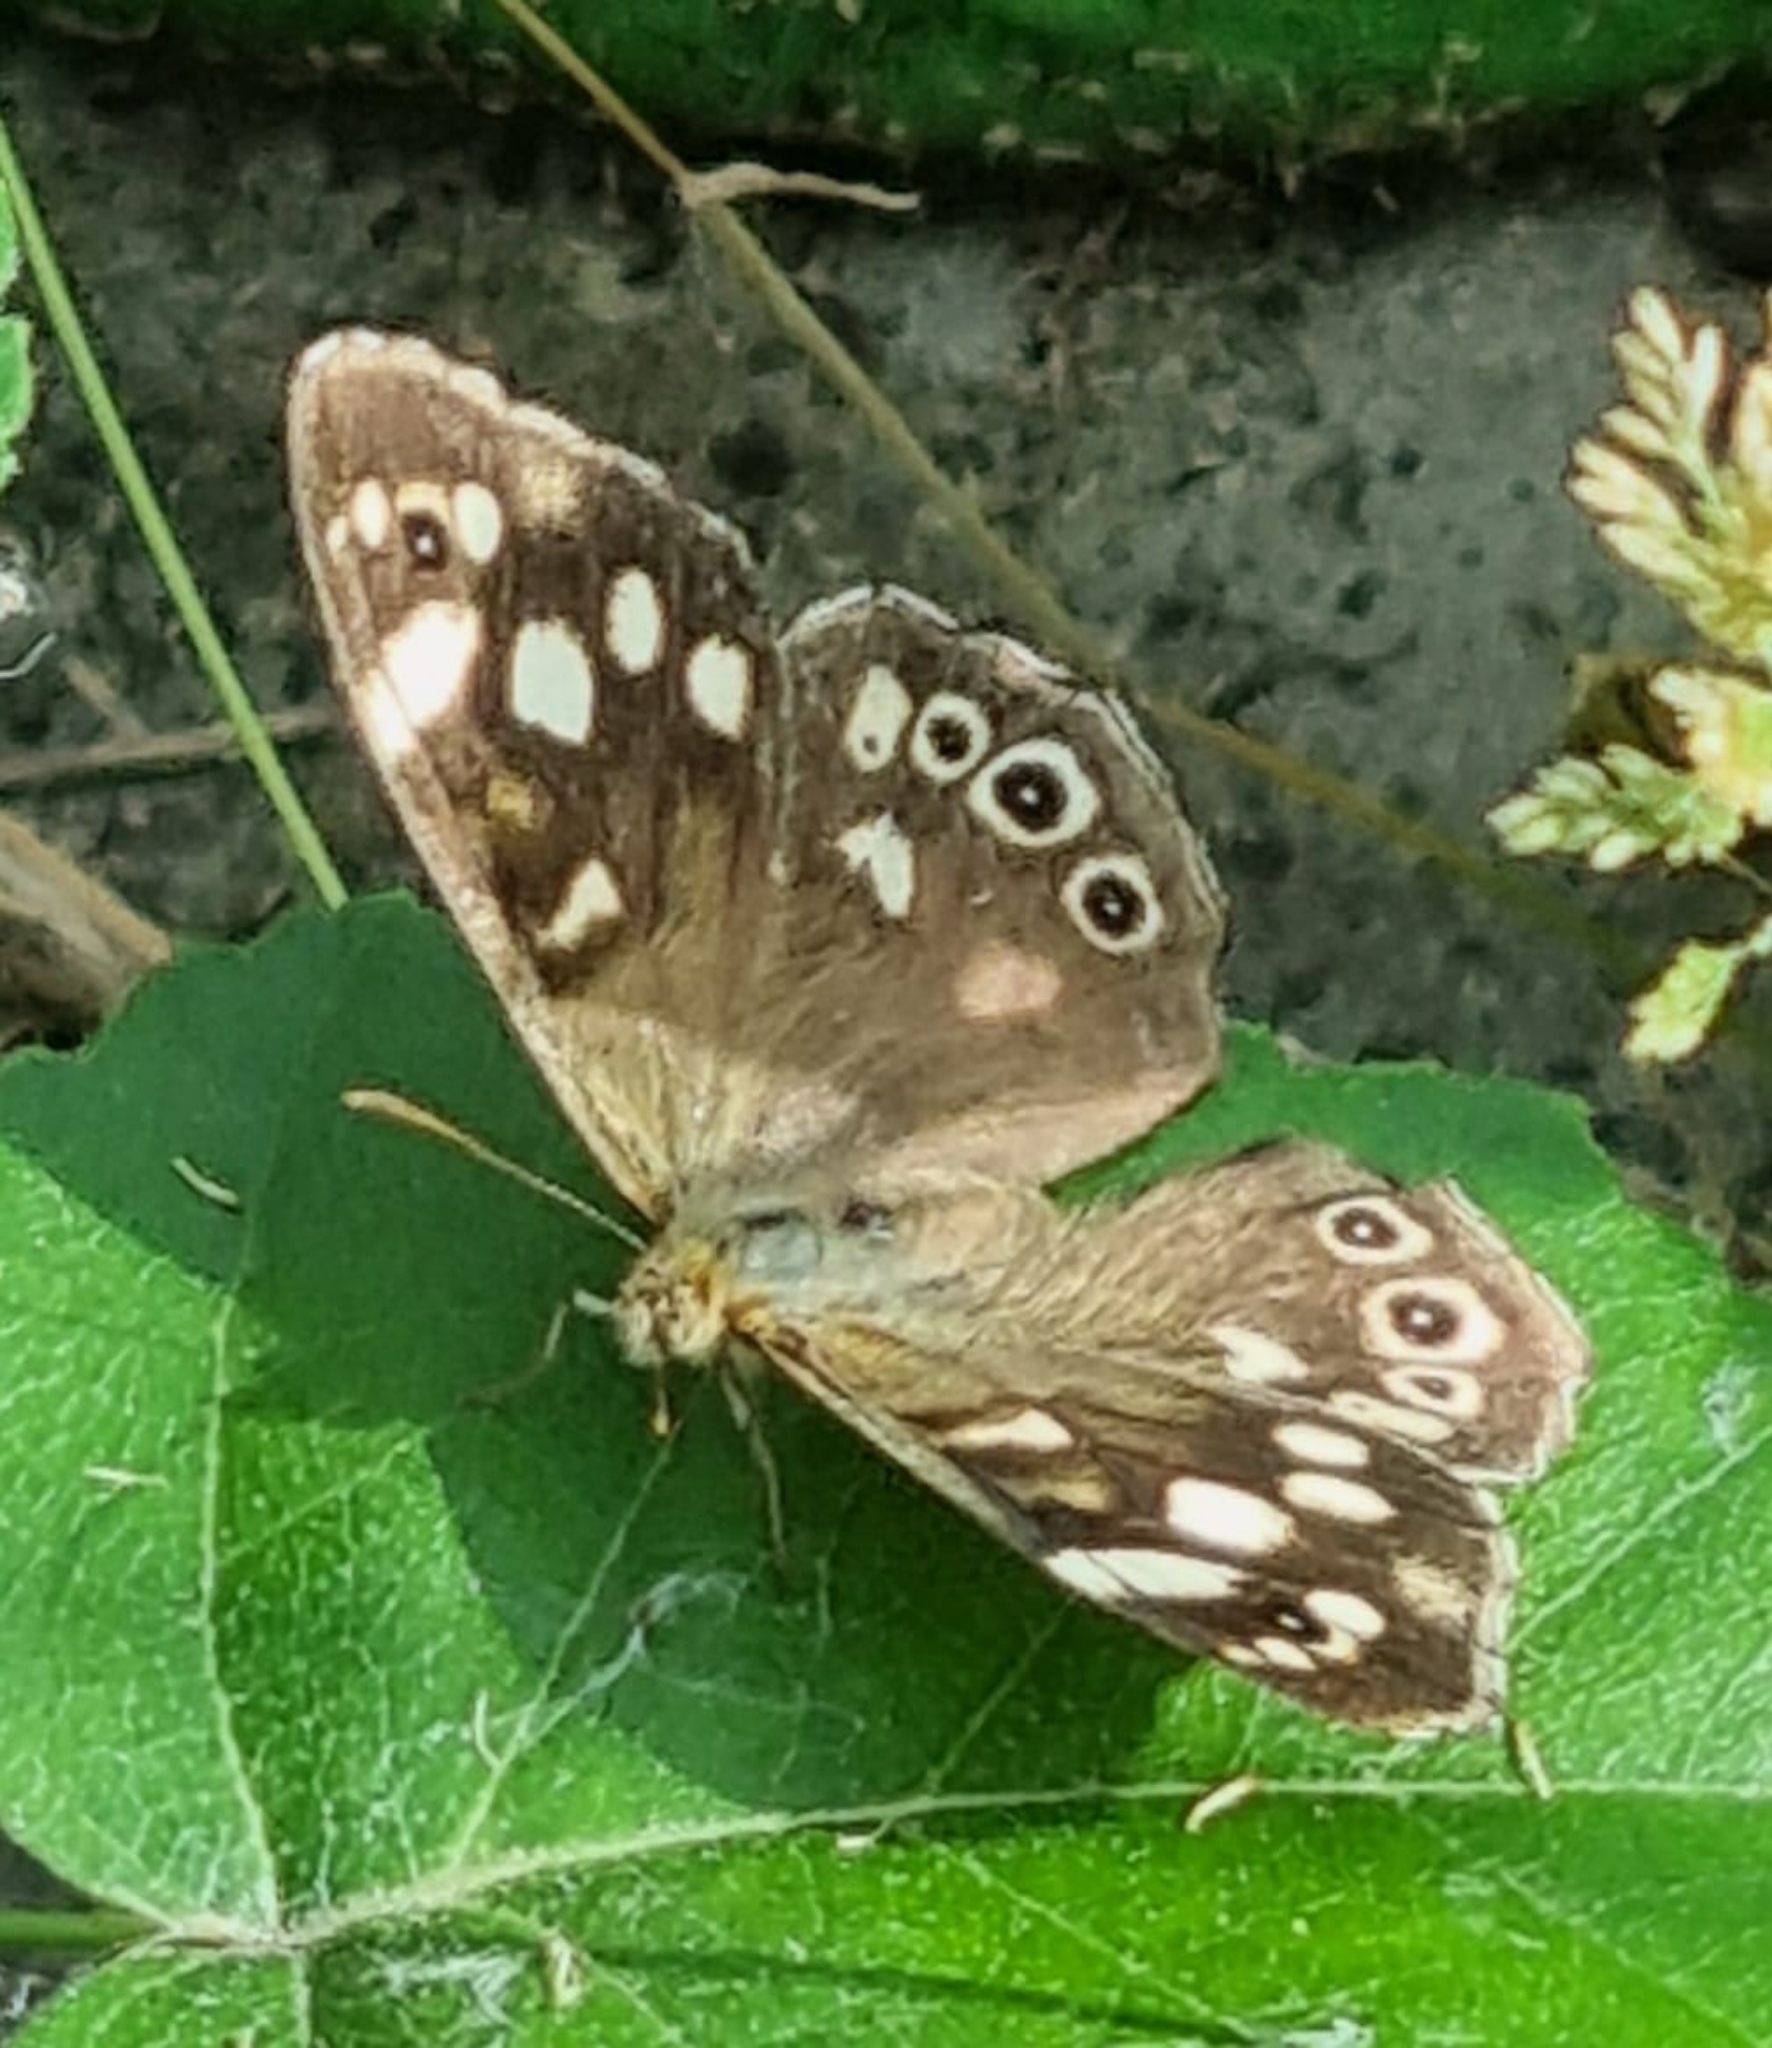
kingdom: Animalia
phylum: Arthropoda
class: Insecta
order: Lepidoptera
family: Nymphalidae
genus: Pararge
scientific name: Pararge aegeria
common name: Speckled wood
